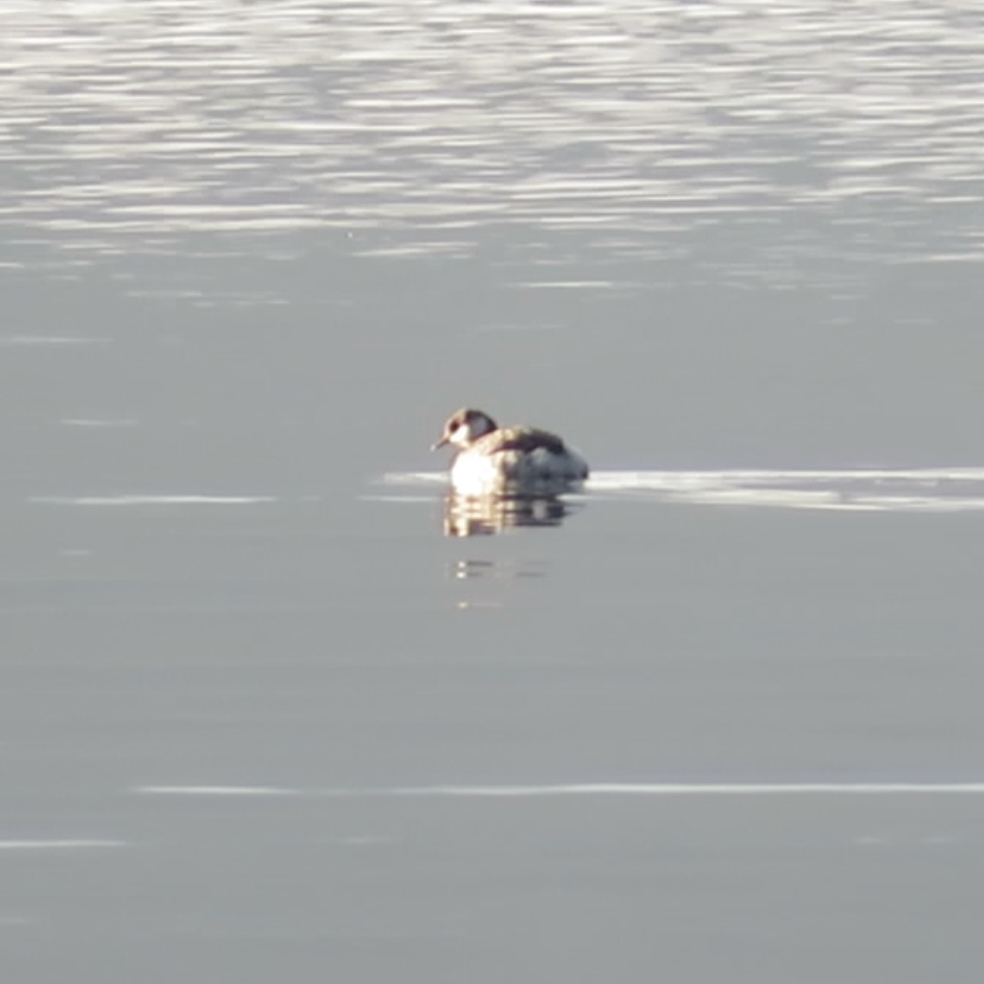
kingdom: Animalia
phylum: Chordata
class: Aves
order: Podicipediformes
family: Podicipedidae
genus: Podiceps
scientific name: Podiceps auritus
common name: Horned grebe
